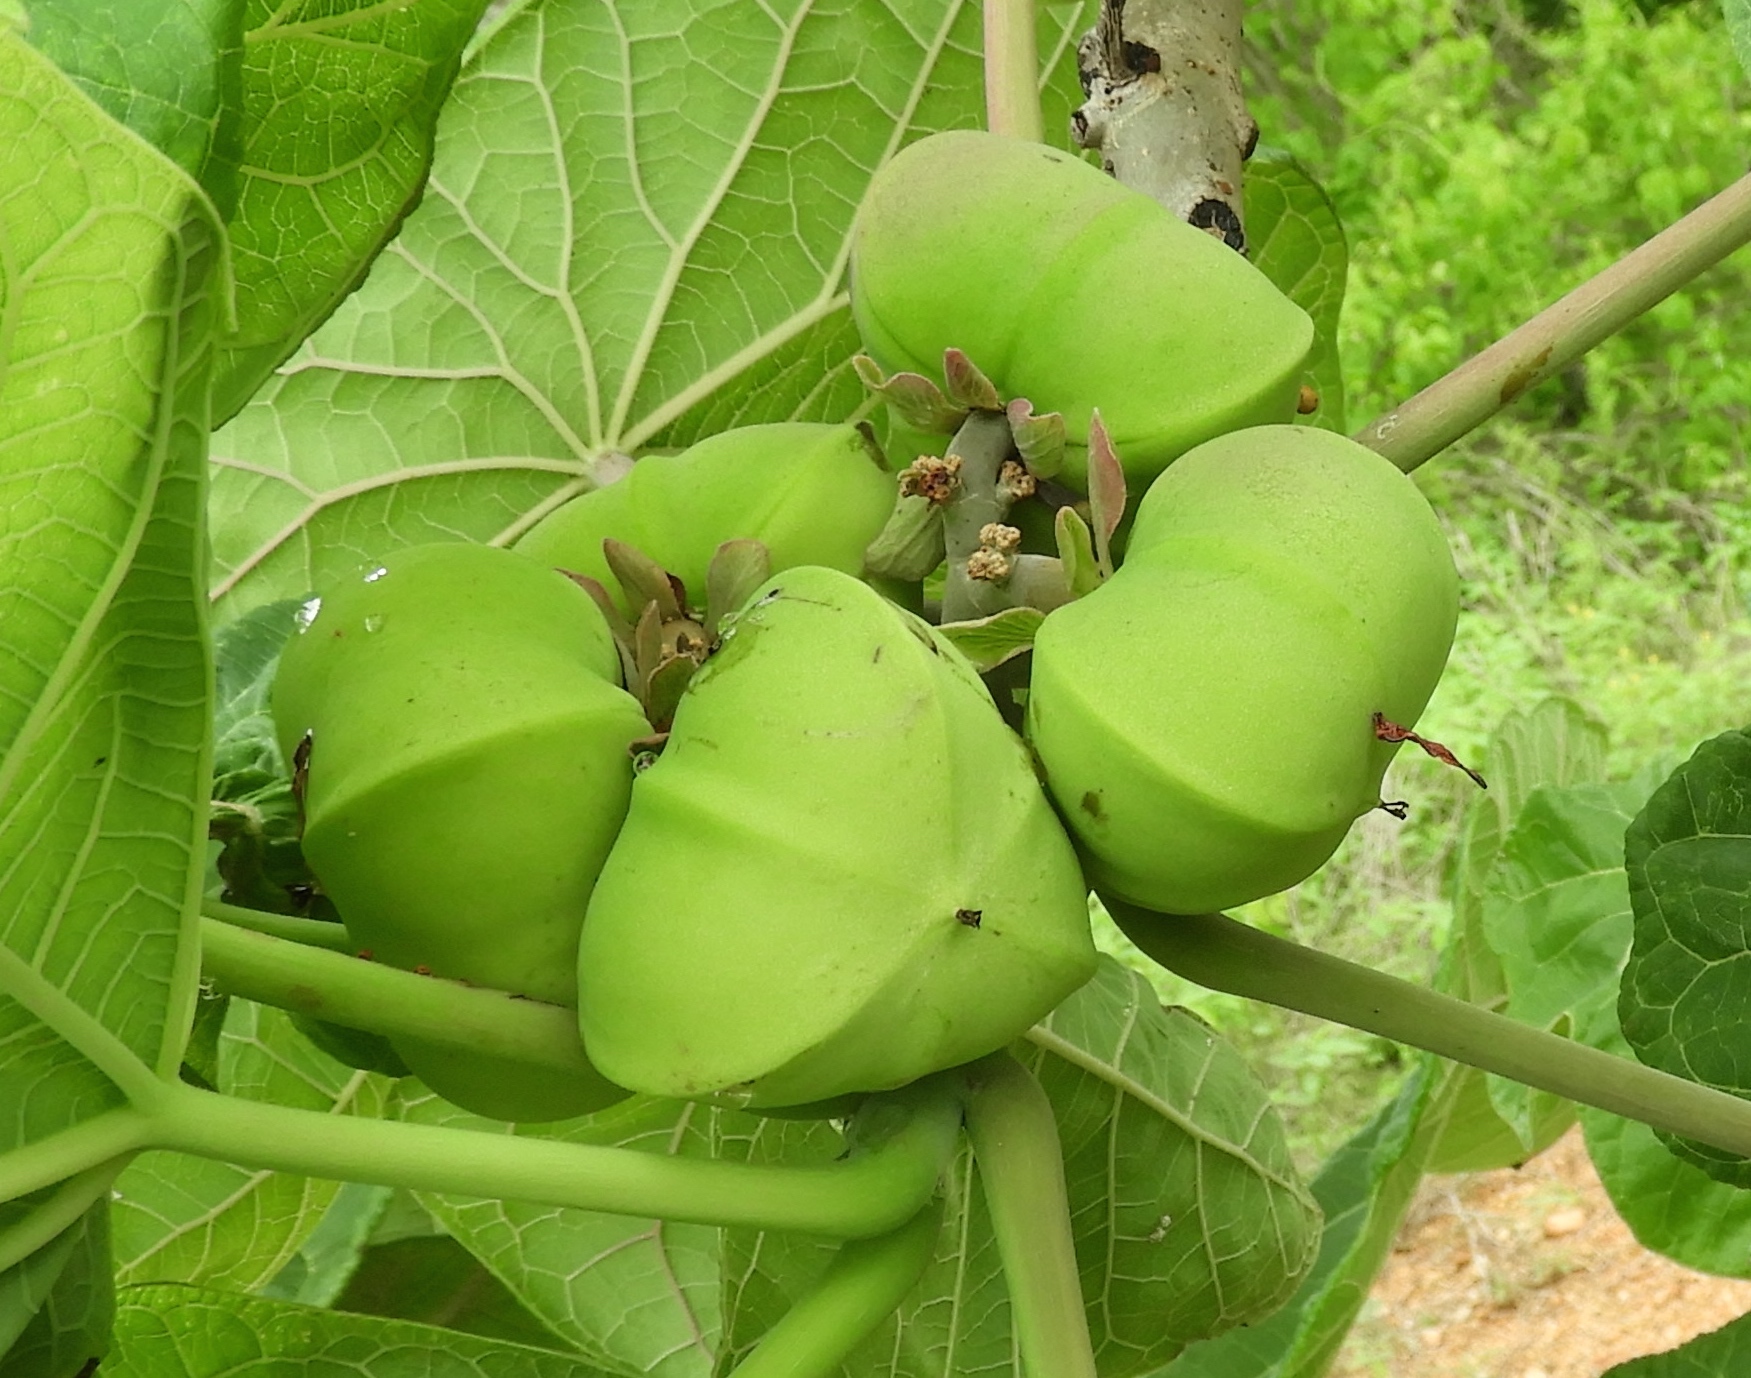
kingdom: Plantae
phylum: Tracheophyta
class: Magnoliopsida
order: Malpighiales
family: Euphorbiaceae
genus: Jatropha
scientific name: Jatropha peltata
